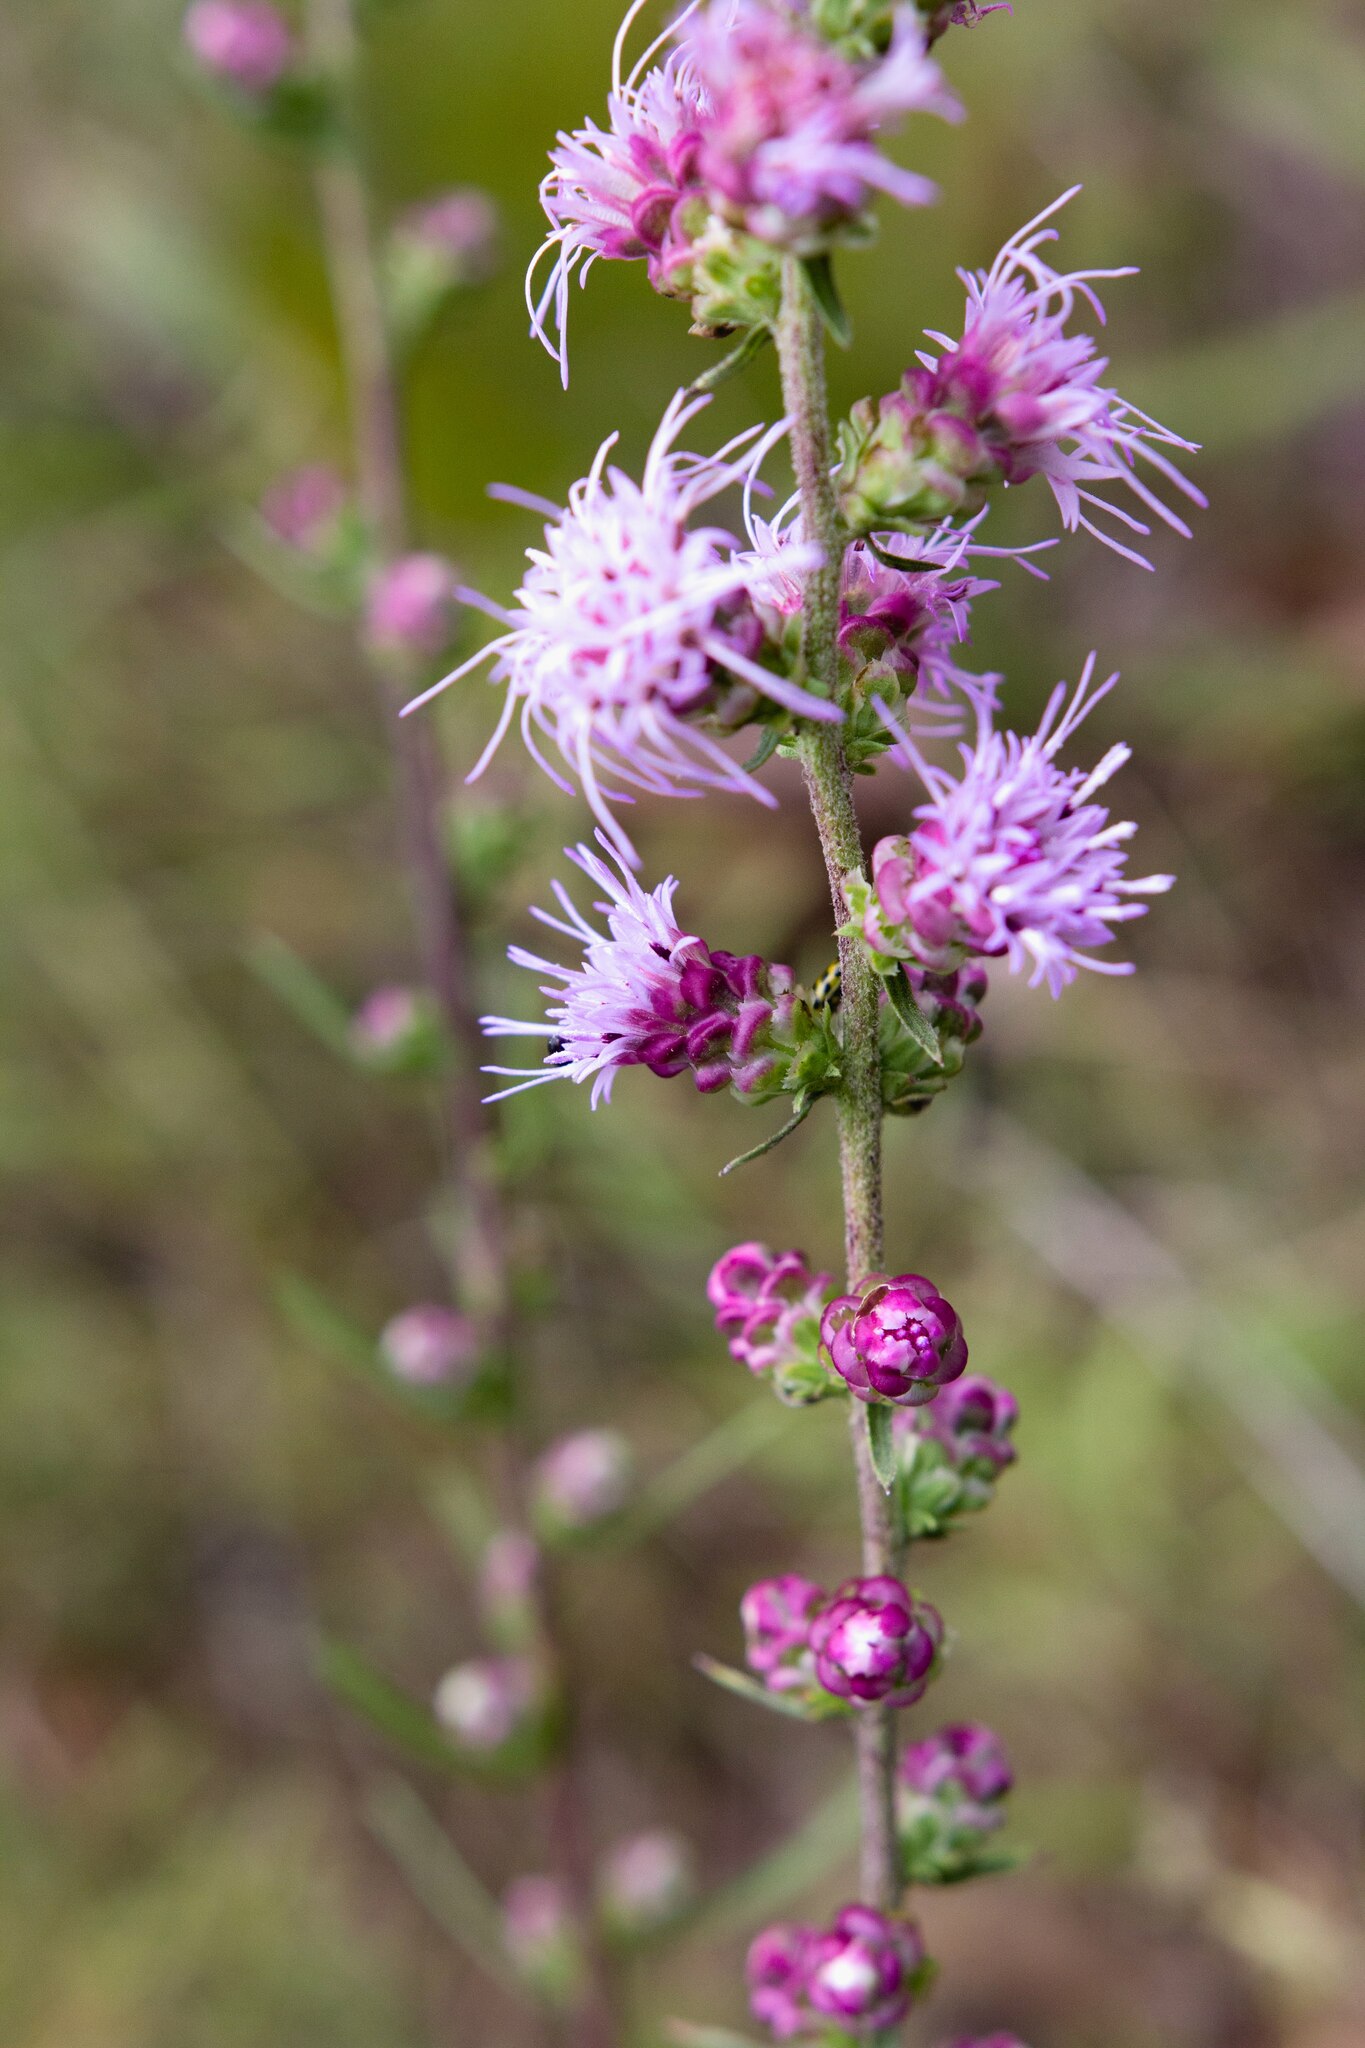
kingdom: Plantae
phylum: Tracheophyta
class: Magnoliopsida
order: Asterales
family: Asteraceae
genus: Liatris
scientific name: Liatris aspera
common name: Lacerate blazing-star
